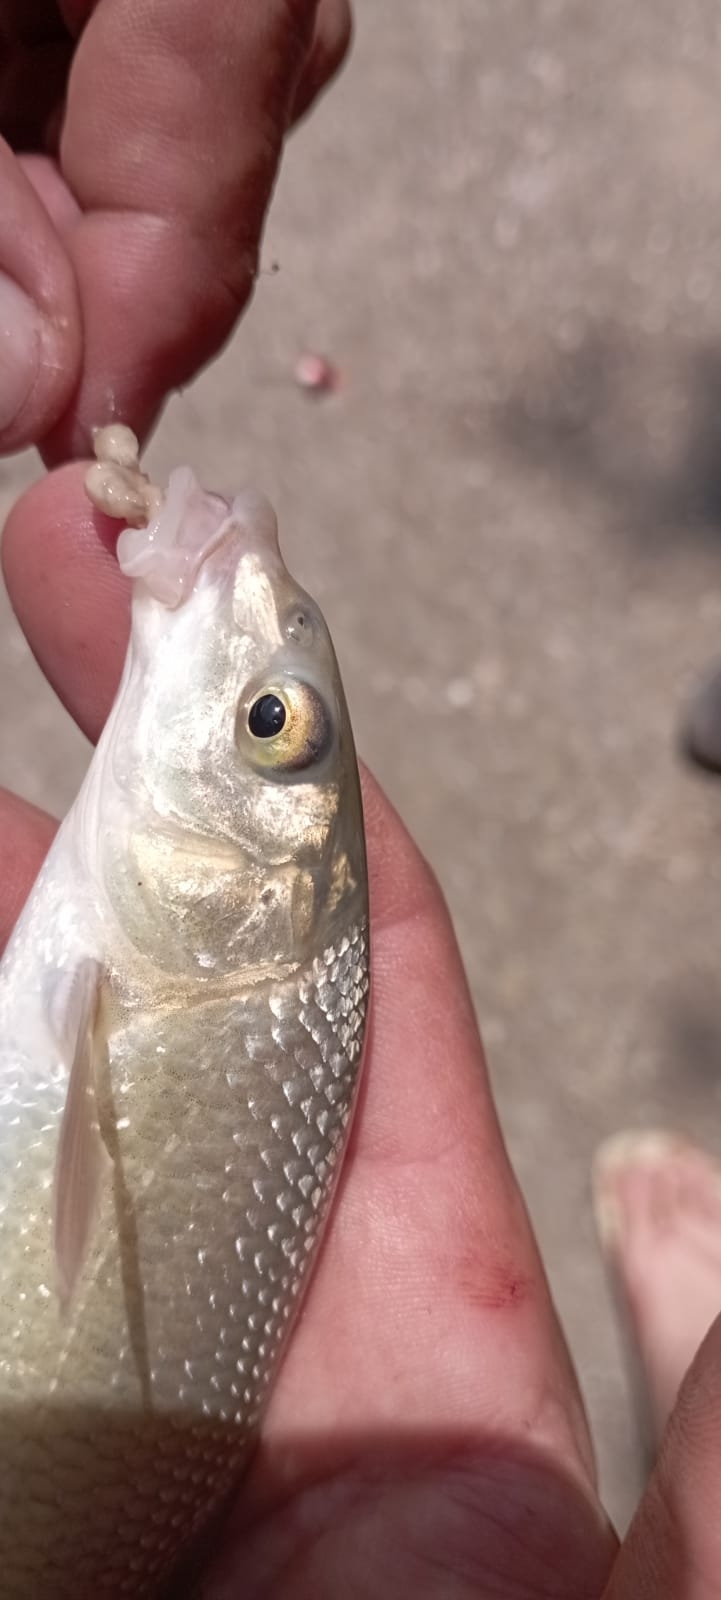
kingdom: Animalia
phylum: Chordata
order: Cypriniformes
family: Cyprinidae
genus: Luciobarbus
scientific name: Luciobarbus graellsii
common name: Ebro barbel
